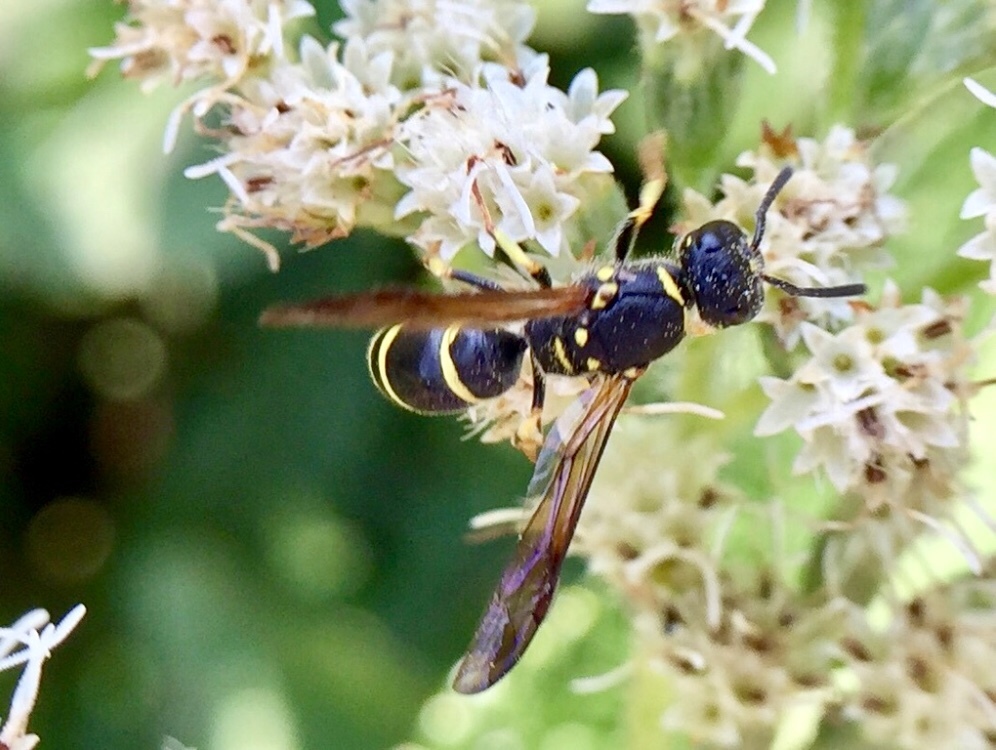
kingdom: Animalia
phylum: Arthropoda
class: Insecta
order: Hymenoptera
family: Vespidae
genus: Ancistrocerus
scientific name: Ancistrocerus adiabatus
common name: Bramble mason wasp
